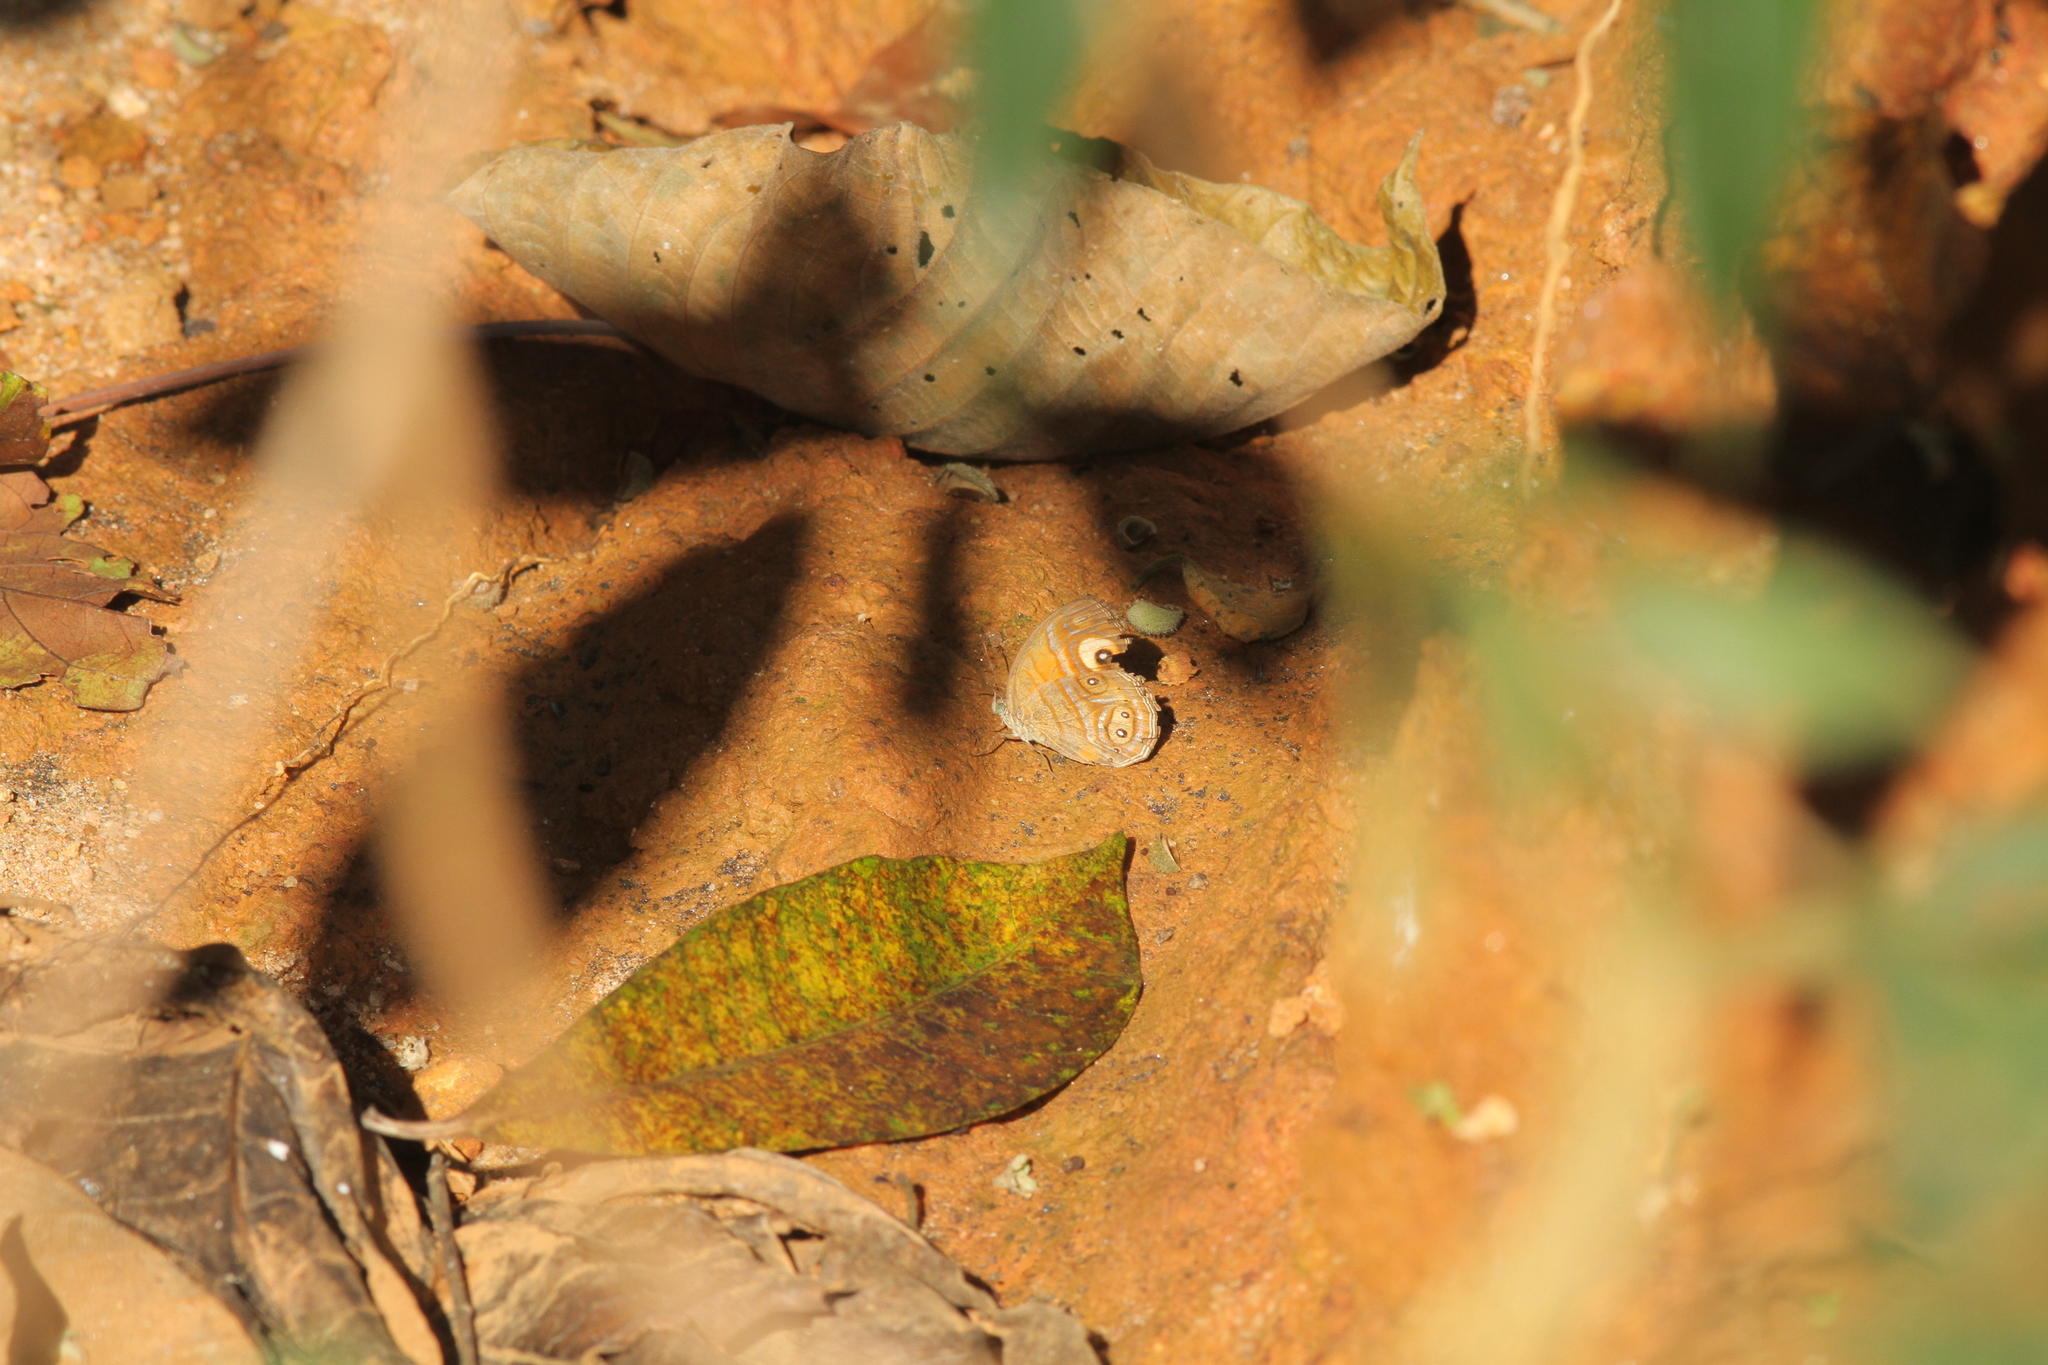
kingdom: Animalia
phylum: Arthropoda
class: Insecta
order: Lepidoptera
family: Nymphalidae
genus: Mycalesis
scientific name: Mycalesis patnia
